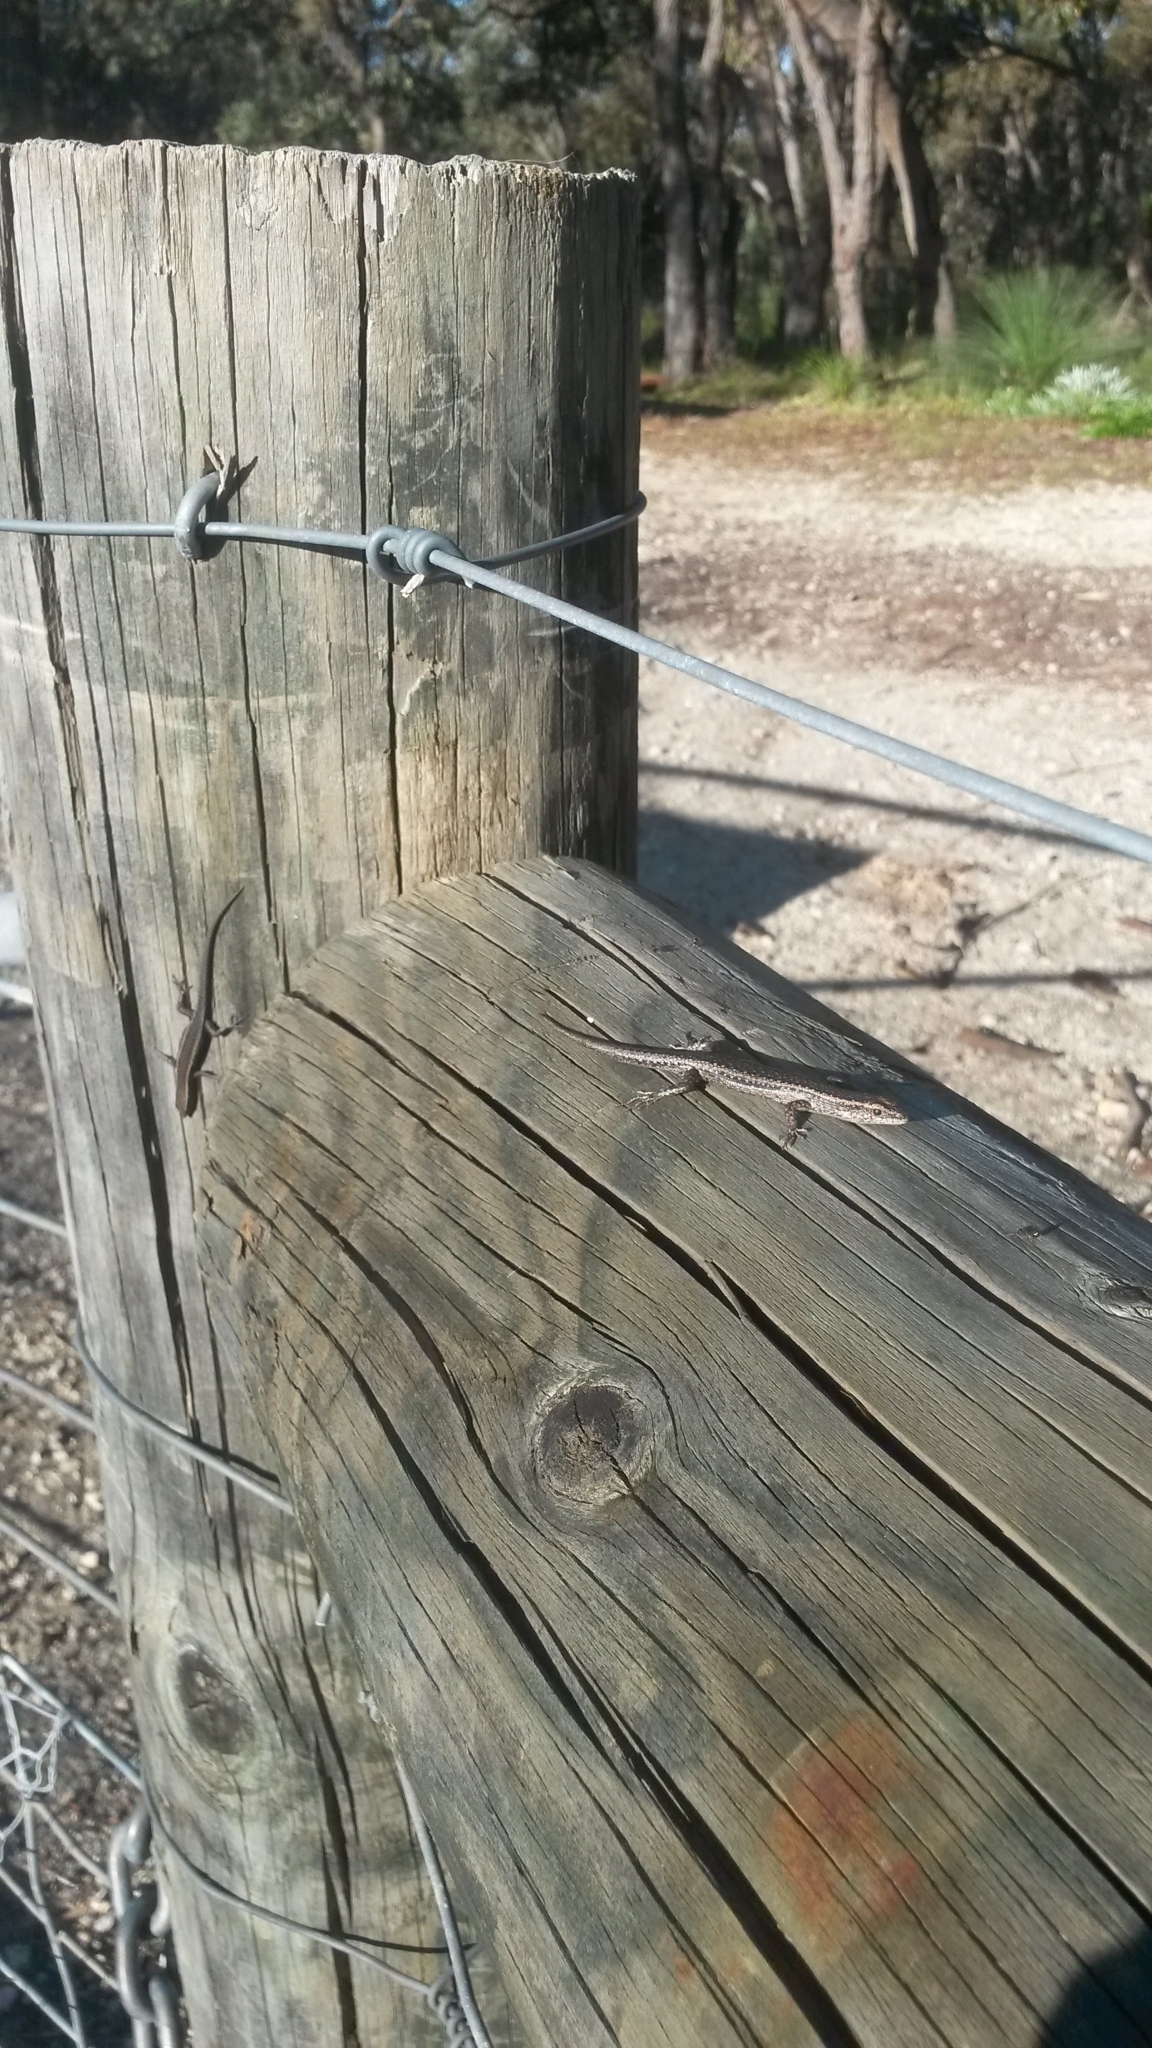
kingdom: Animalia
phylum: Chordata
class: Squamata
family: Scincidae
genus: Cryptoblepharus
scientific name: Cryptoblepharus buchananii
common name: Buchanan's snake-eyed skink
